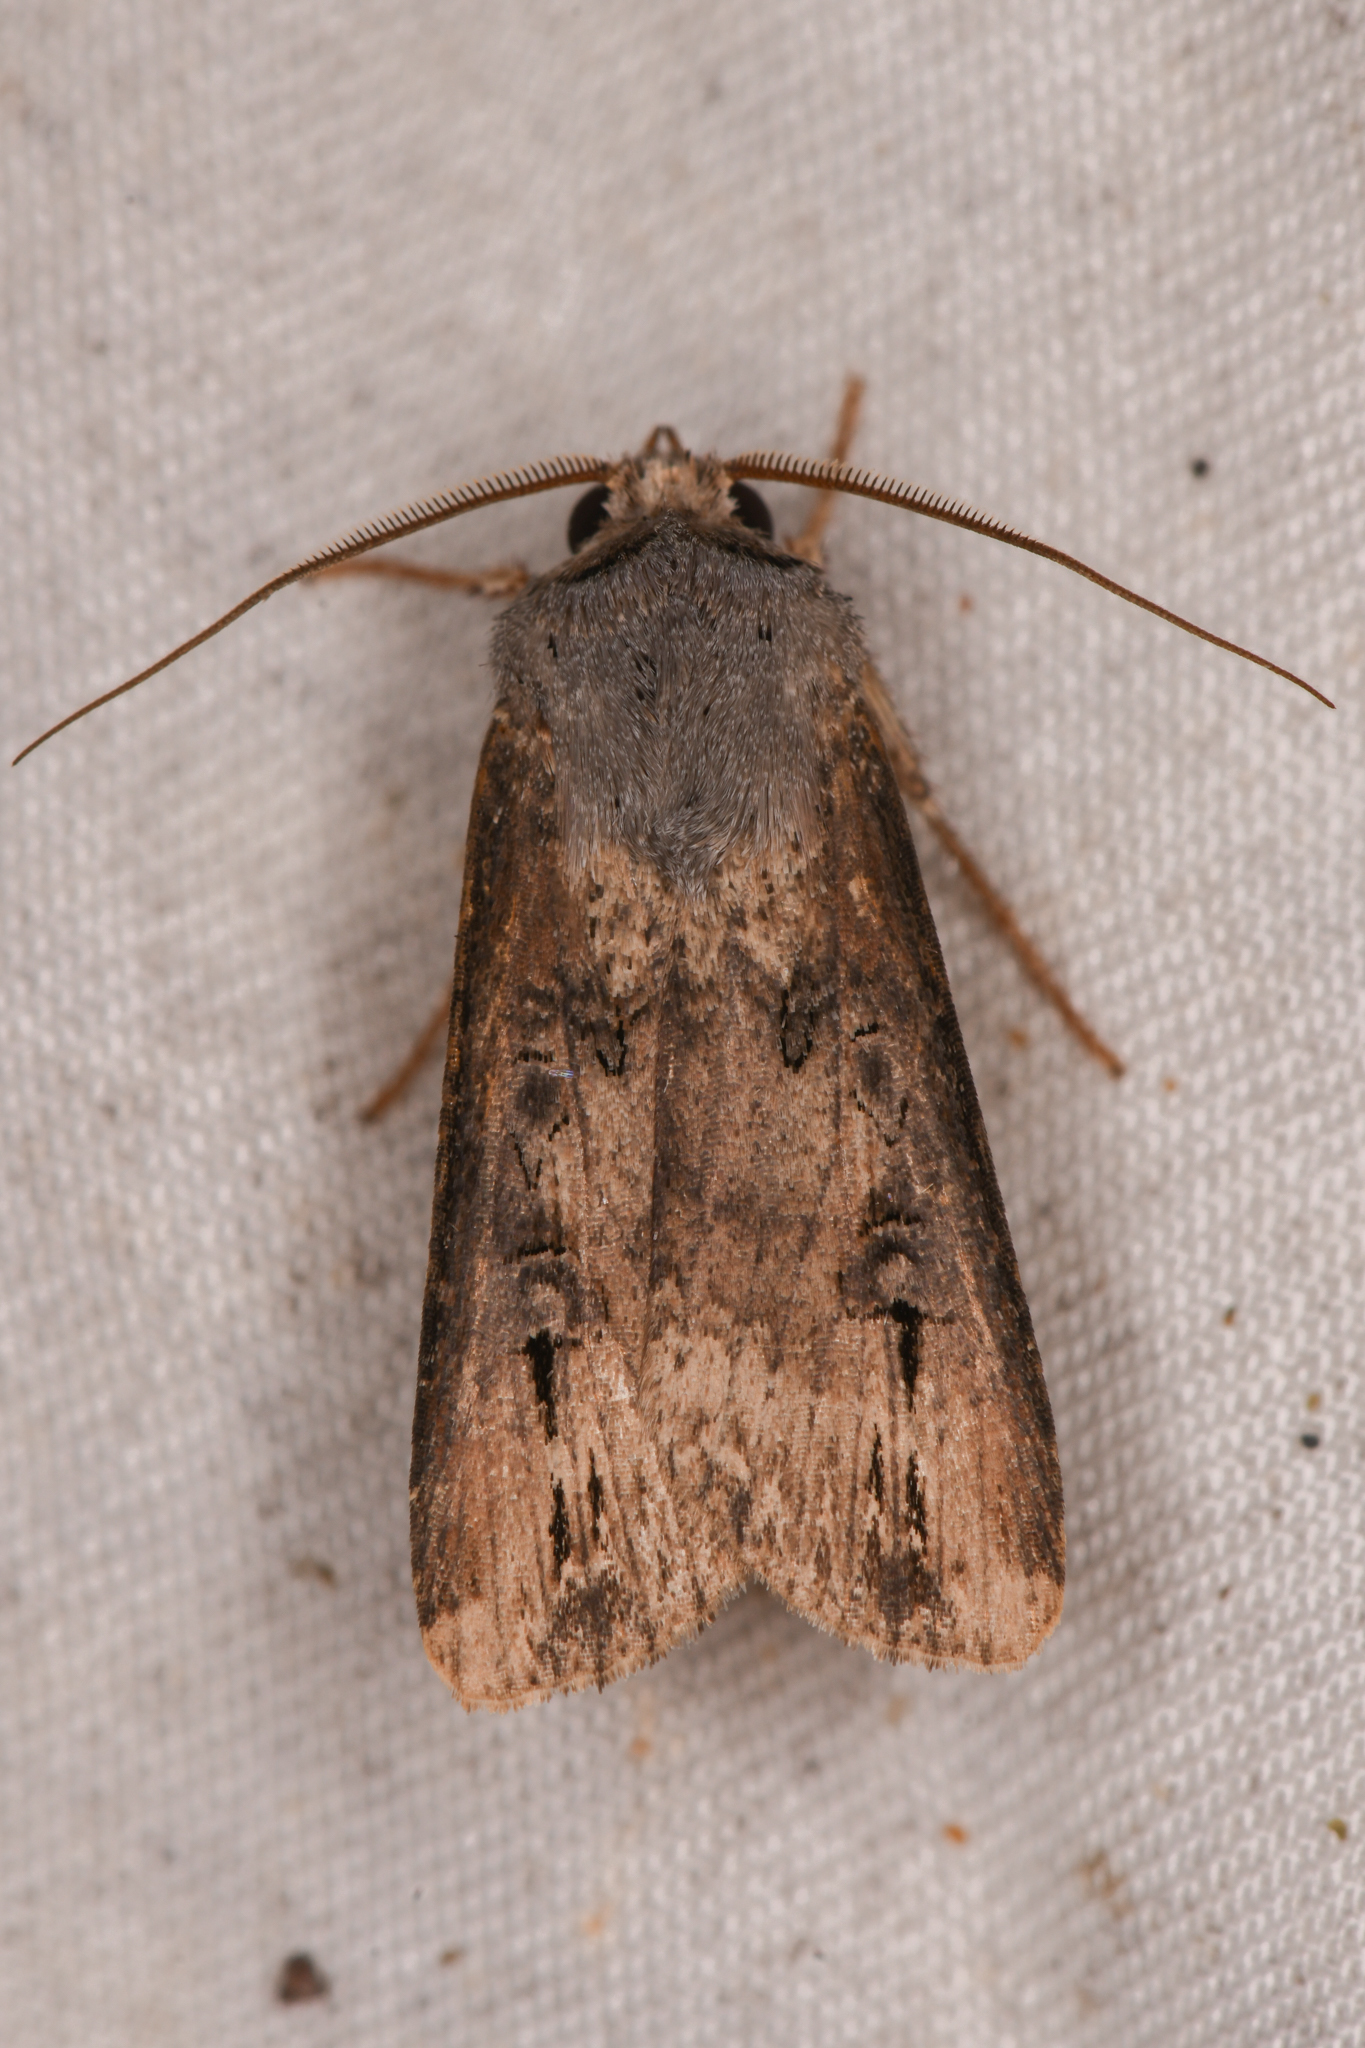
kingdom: Animalia
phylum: Arthropoda
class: Insecta
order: Lepidoptera
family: Noctuidae
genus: Agrotis
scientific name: Agrotis ipsilon
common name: Dark sword-grass
